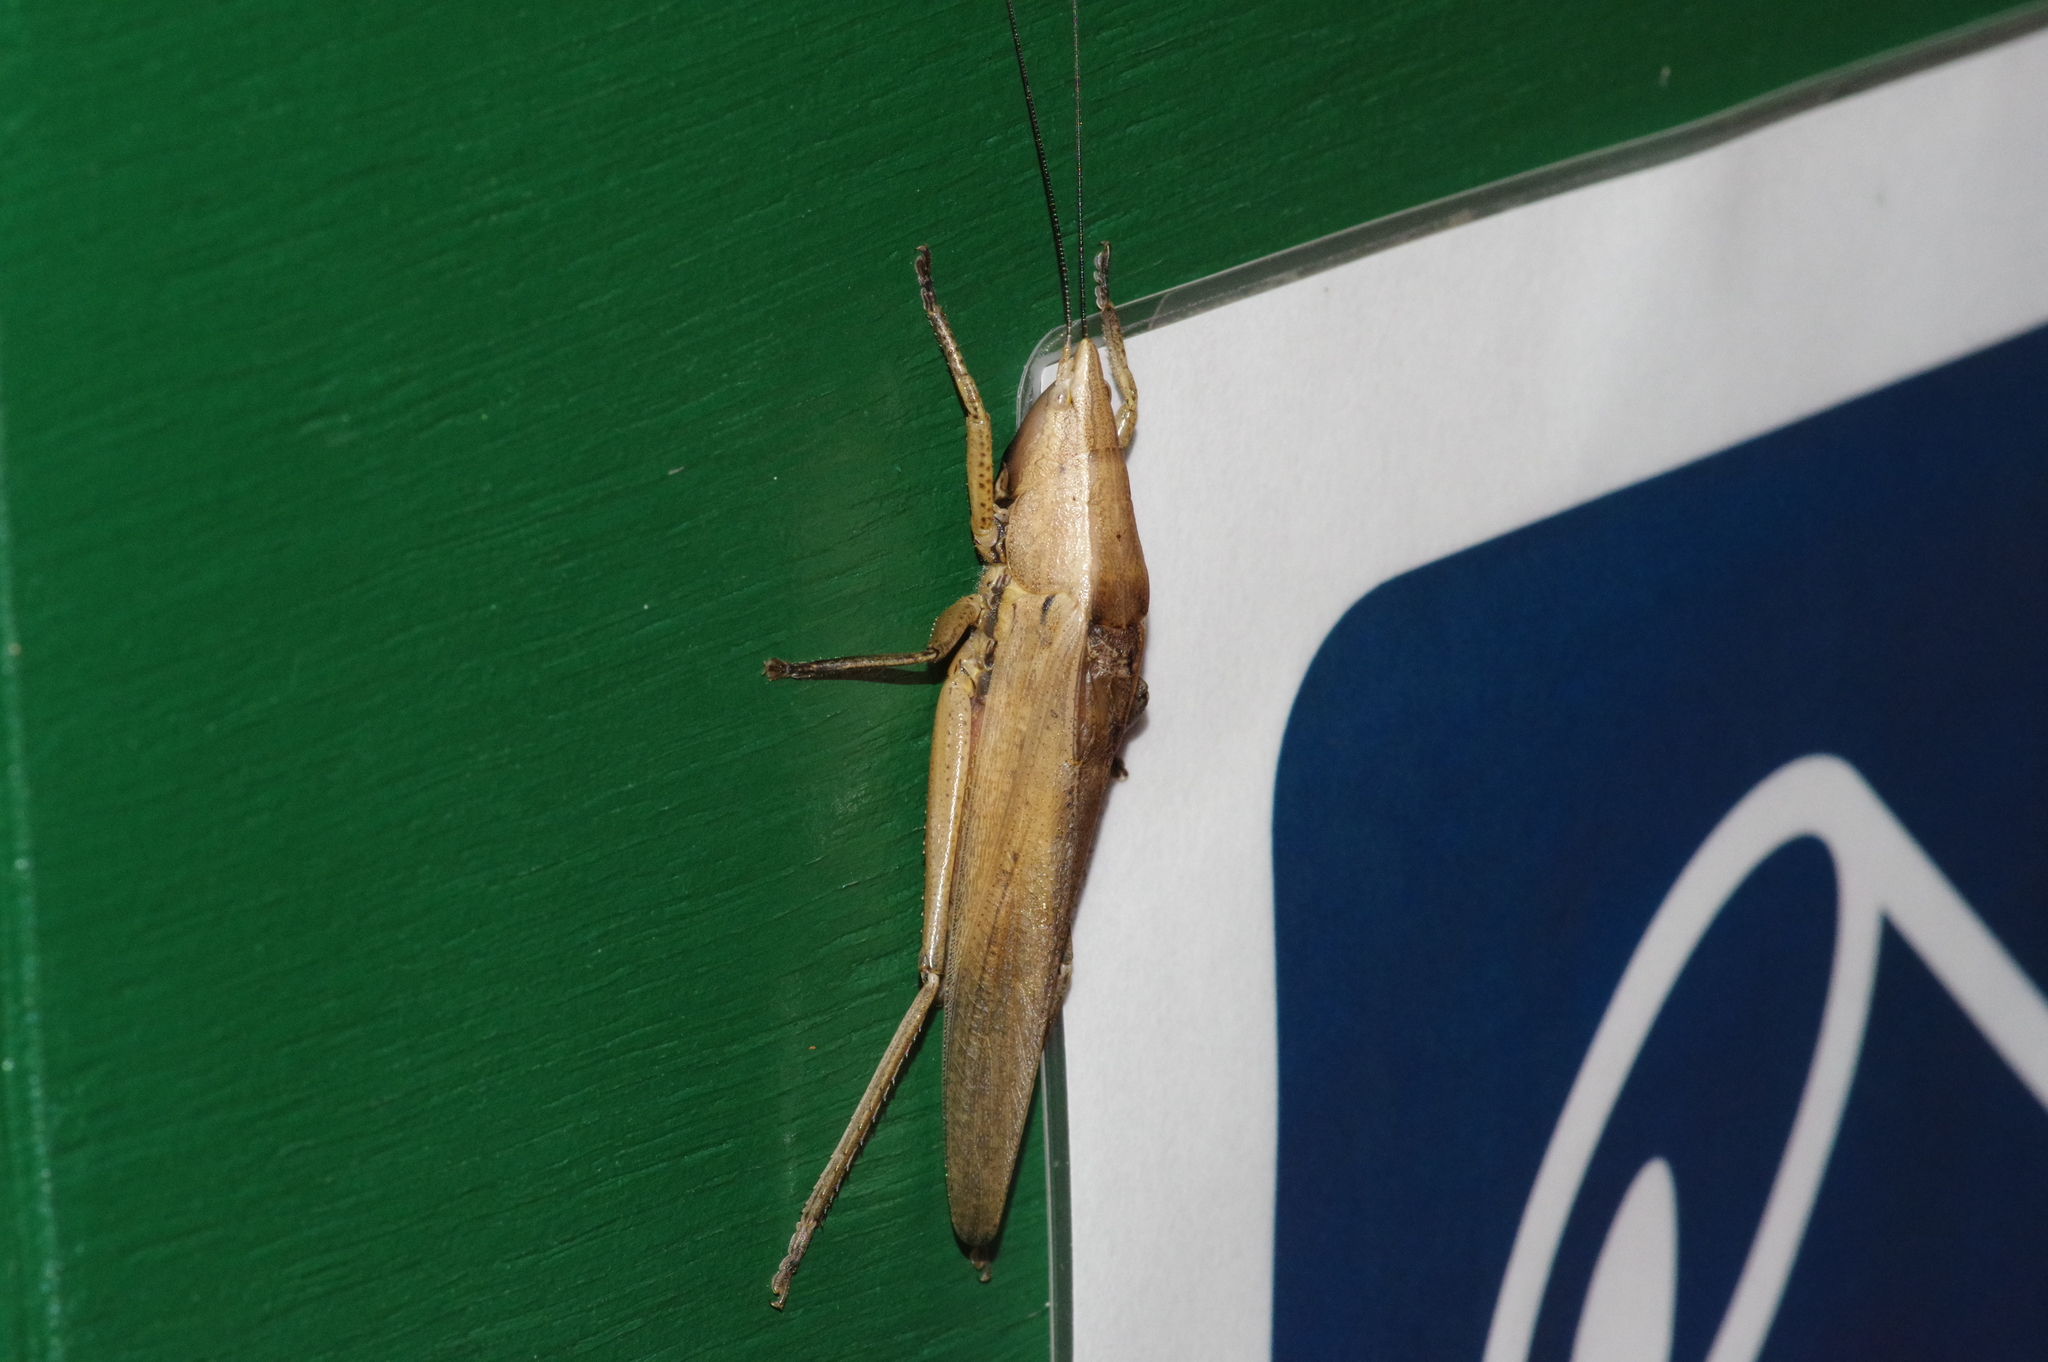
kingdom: Animalia
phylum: Arthropoda
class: Insecta
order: Orthoptera
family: Tettigoniidae
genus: Xestophrys
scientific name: Xestophrys horvathi
